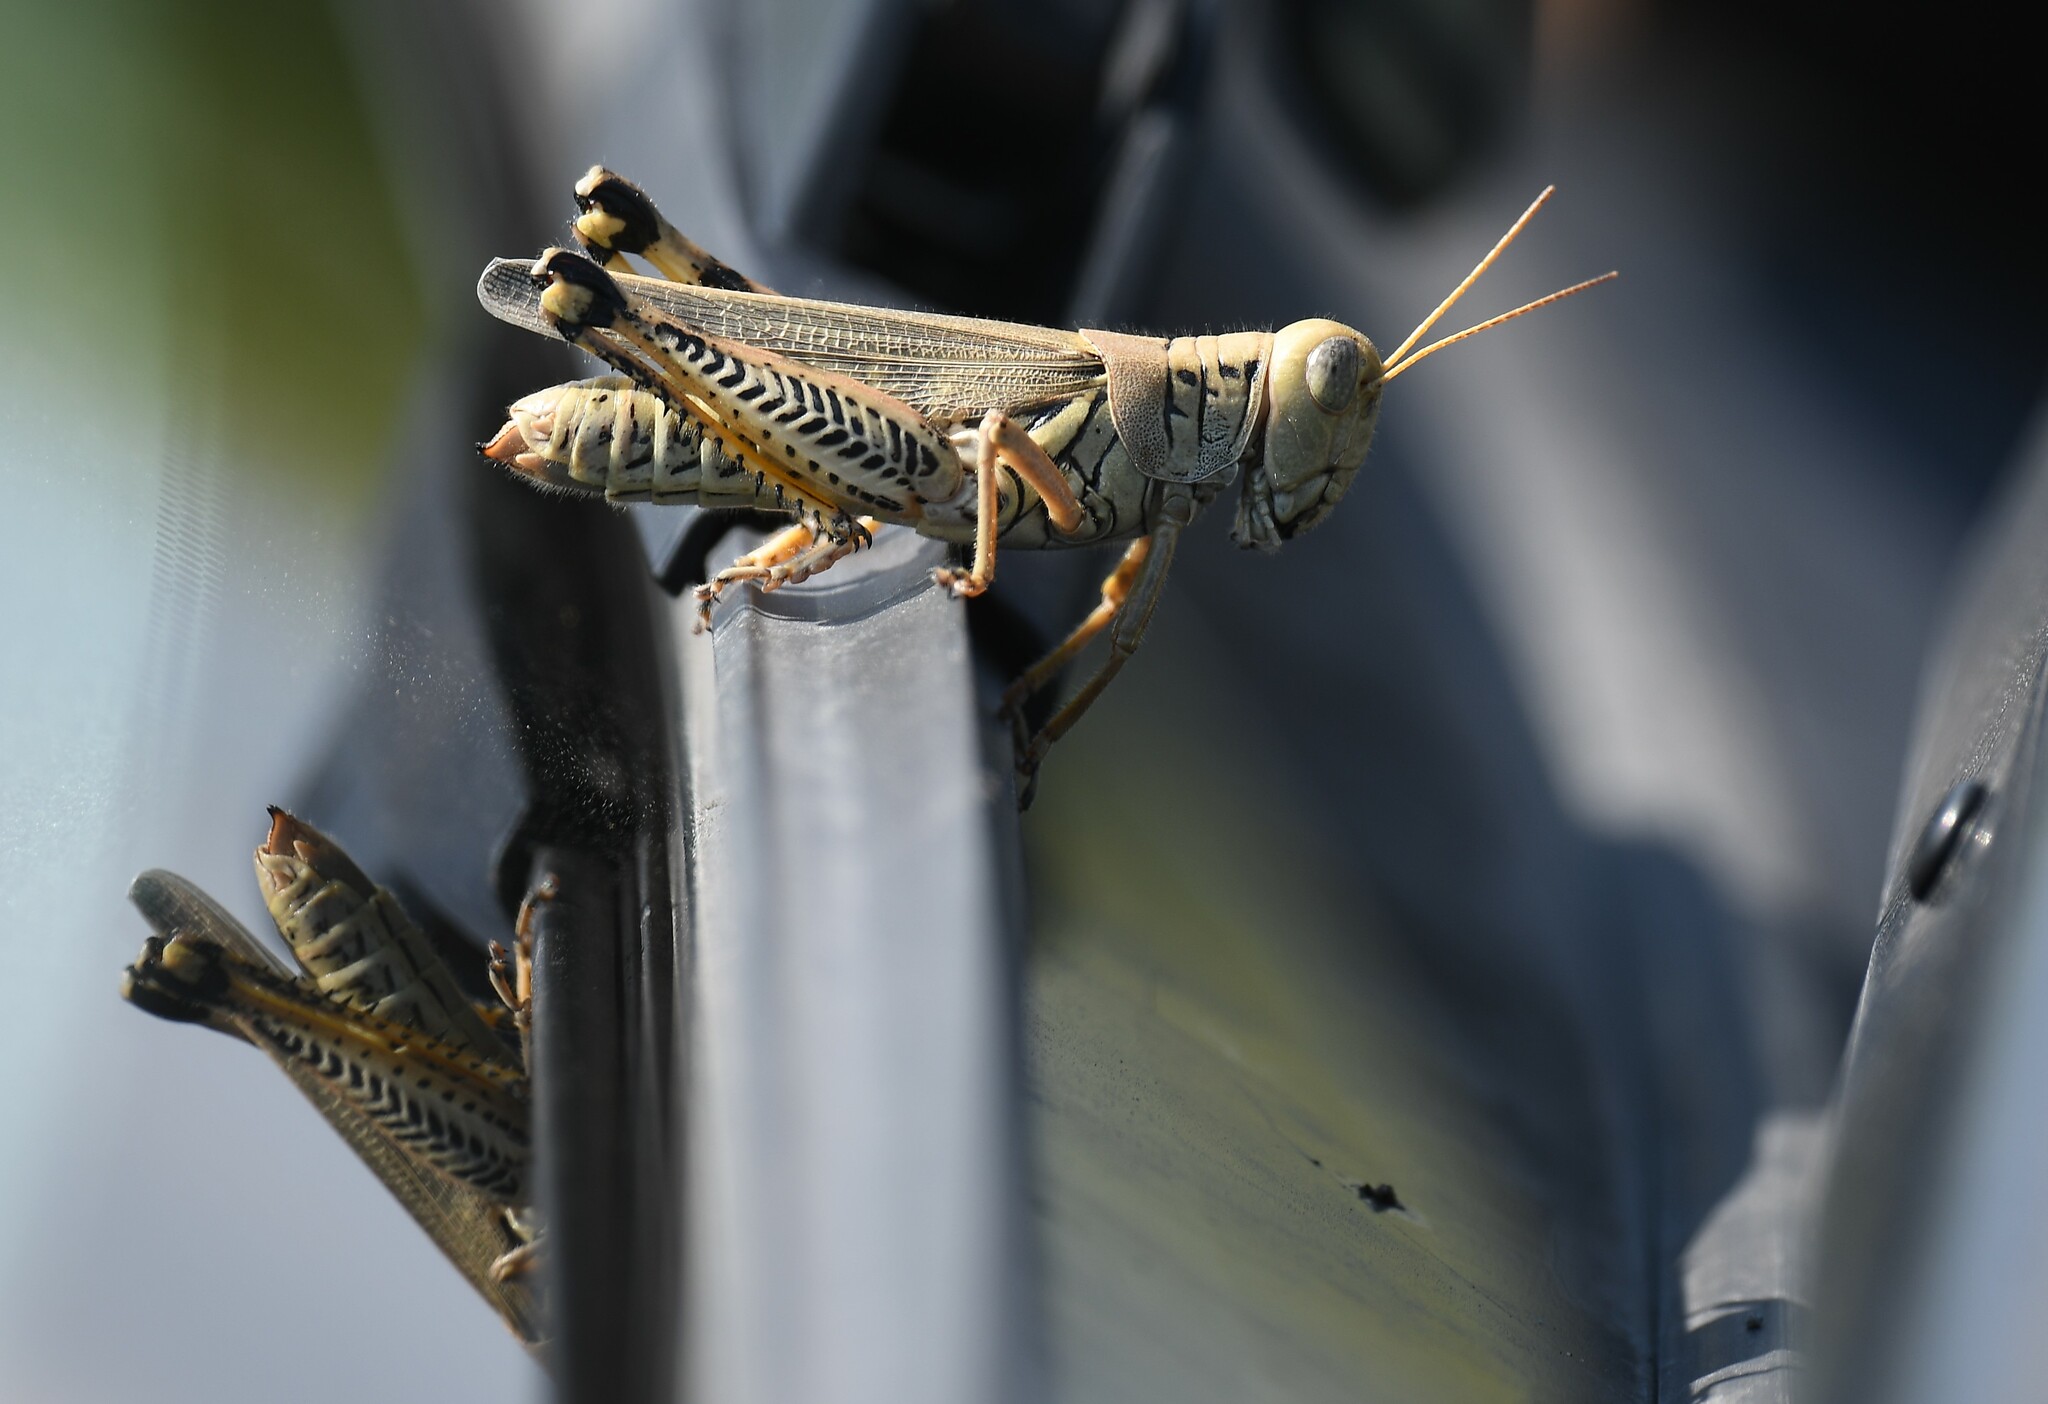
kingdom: Animalia
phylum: Arthropoda
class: Insecta
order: Orthoptera
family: Acrididae
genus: Melanoplus
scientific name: Melanoplus differentialis
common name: Differential grasshopper
